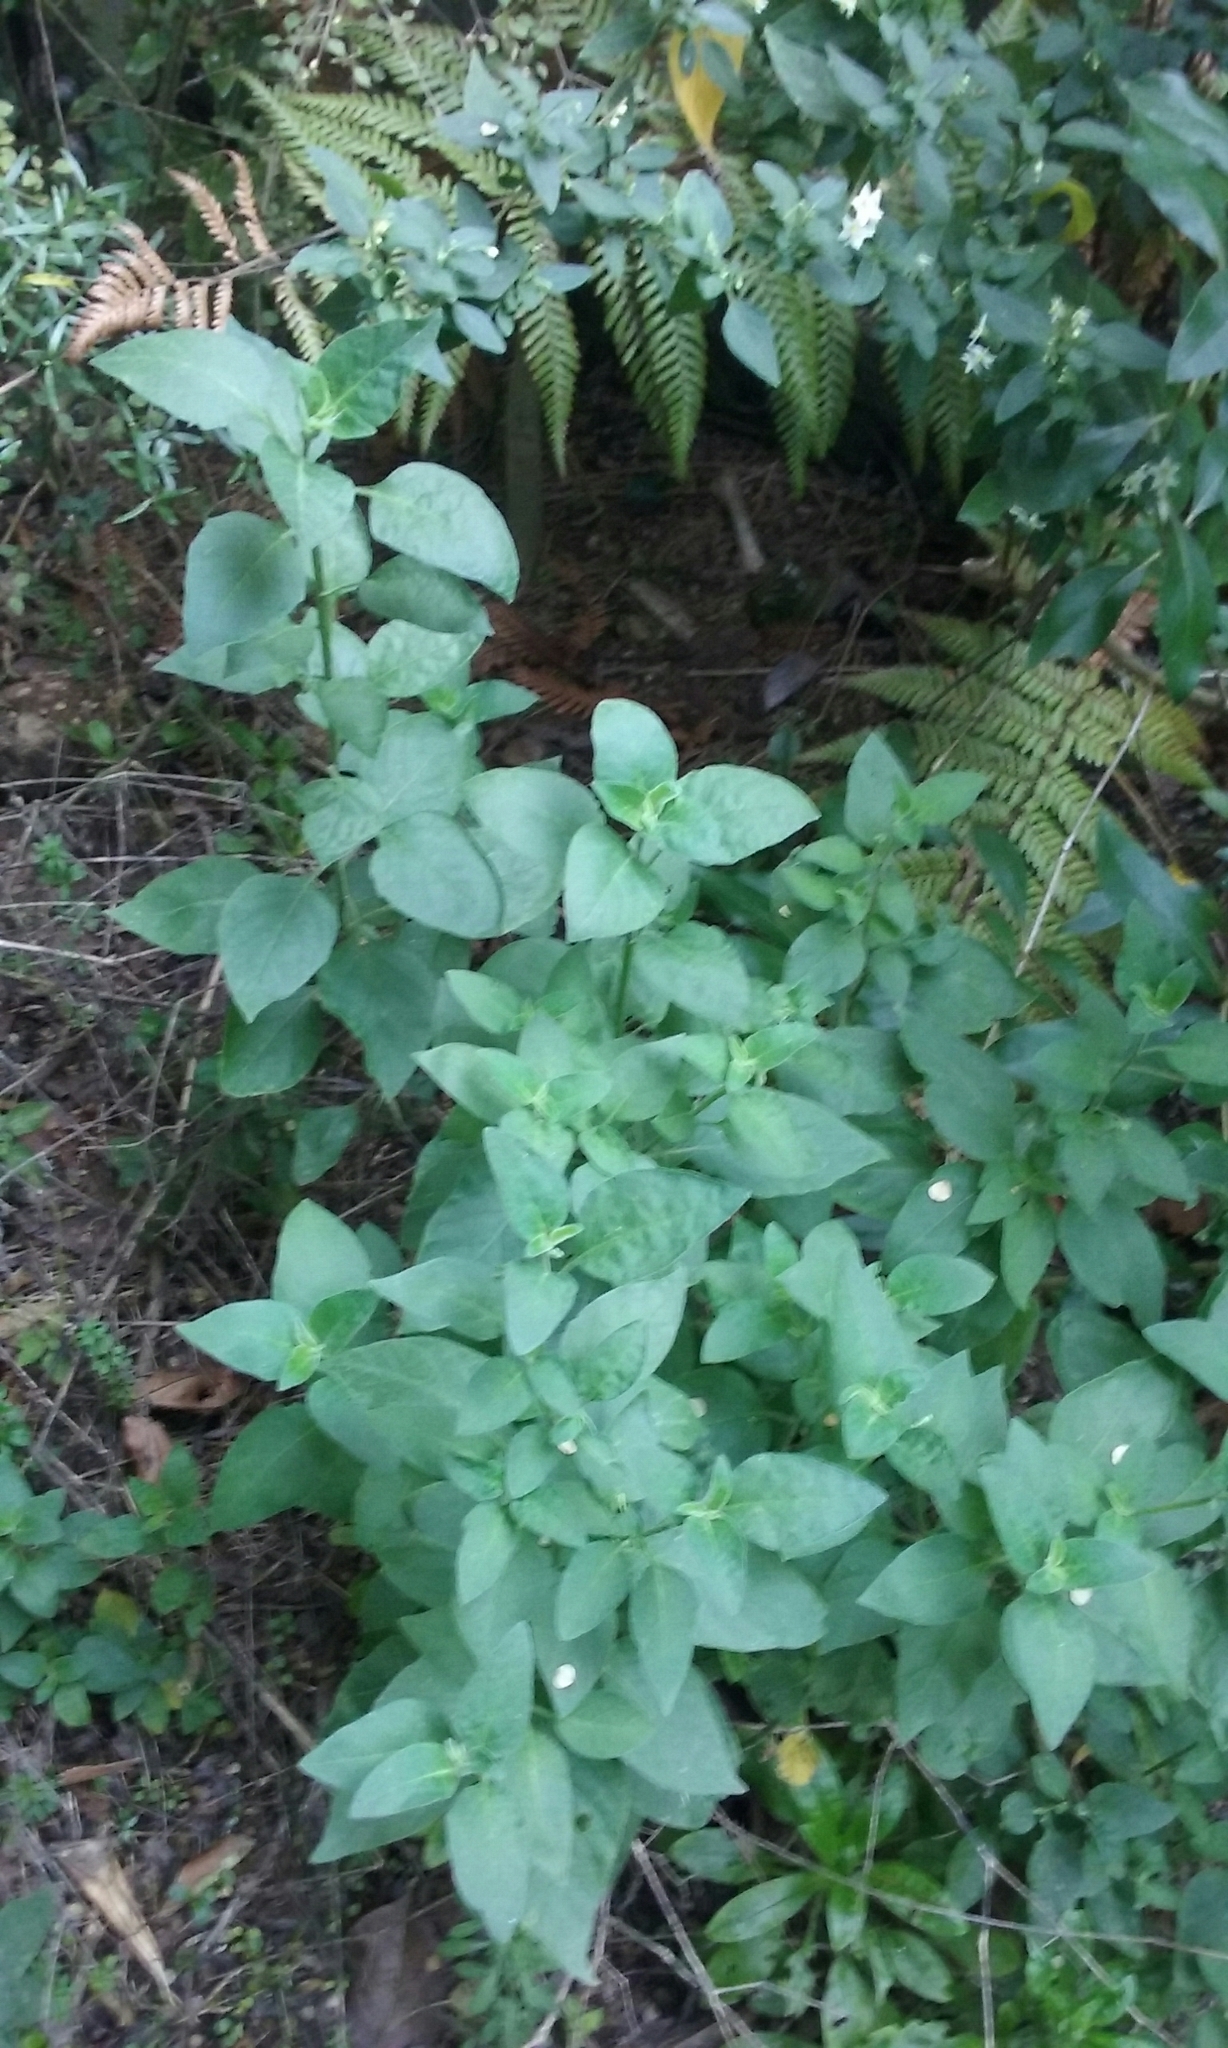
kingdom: Plantae
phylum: Tracheophyta
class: Magnoliopsida
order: Solanales
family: Solanaceae
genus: Solanum
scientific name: Solanum chenopodioides
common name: Tall nightshade
